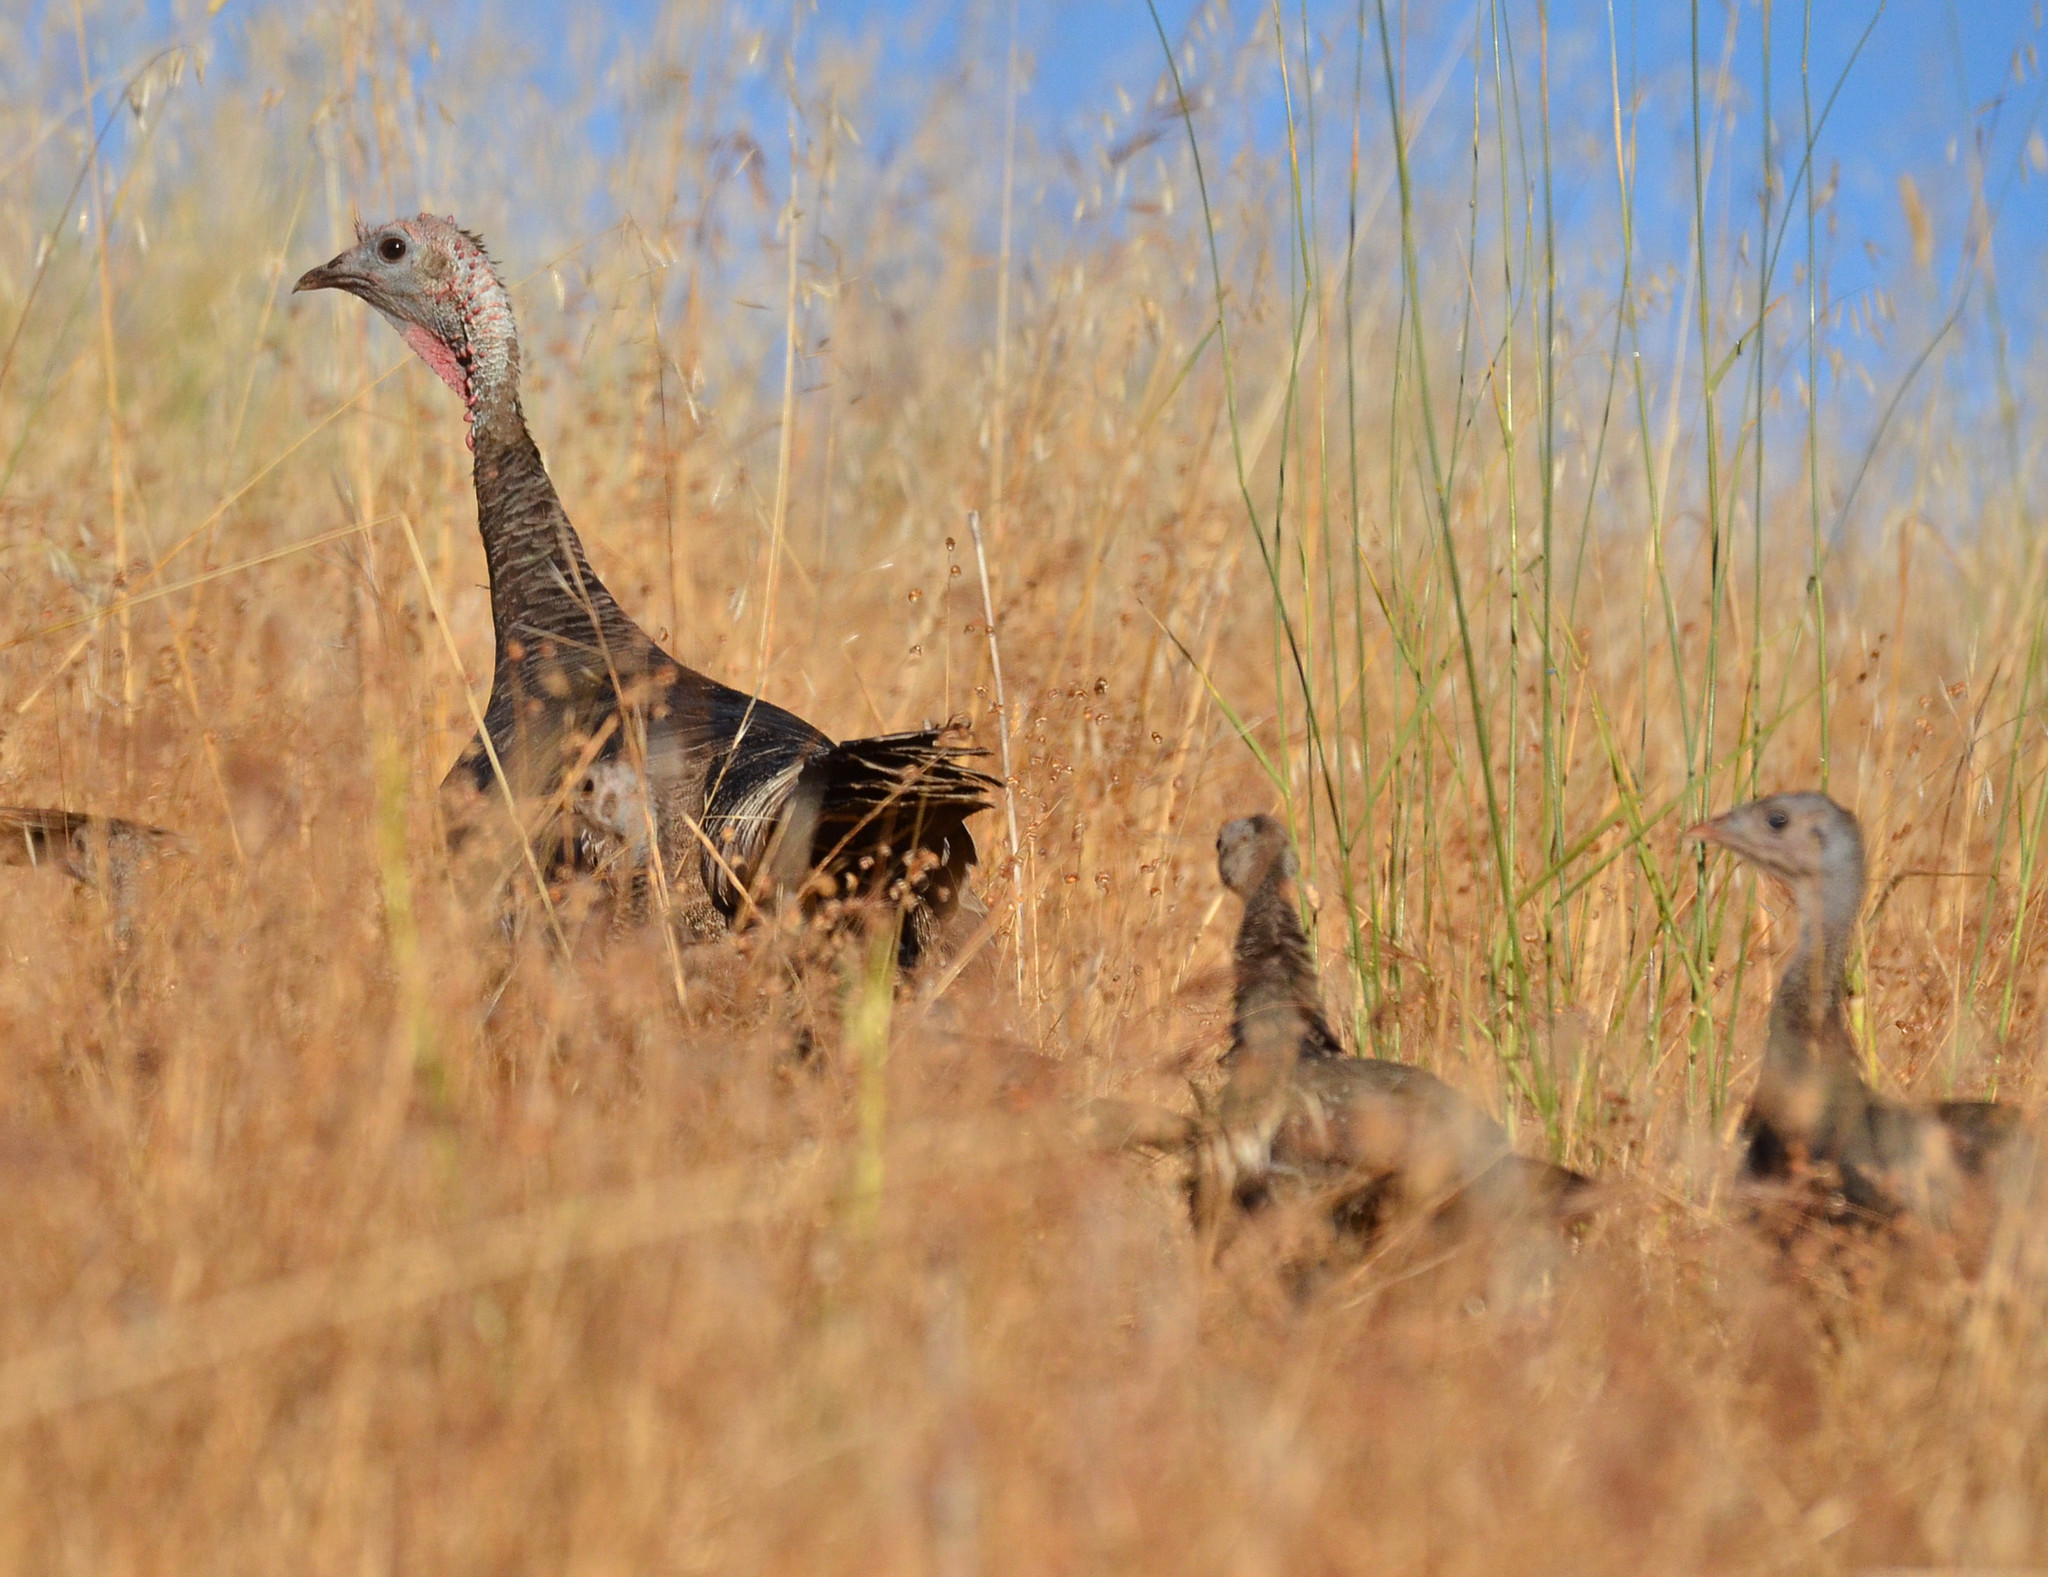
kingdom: Animalia
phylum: Chordata
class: Aves
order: Galliformes
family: Phasianidae
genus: Meleagris
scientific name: Meleagris gallopavo
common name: Wild turkey
